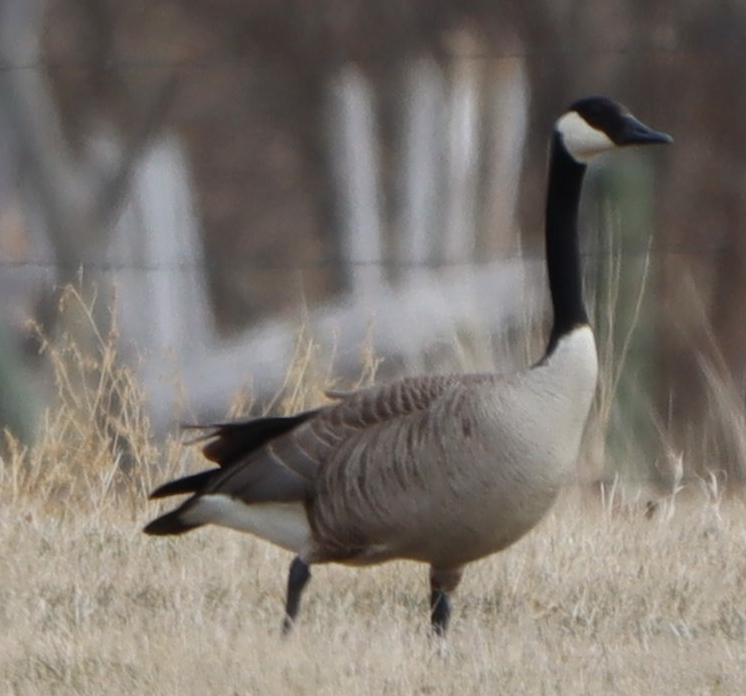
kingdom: Animalia
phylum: Chordata
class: Aves
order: Anseriformes
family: Anatidae
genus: Branta
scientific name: Branta canadensis
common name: Canada goose
